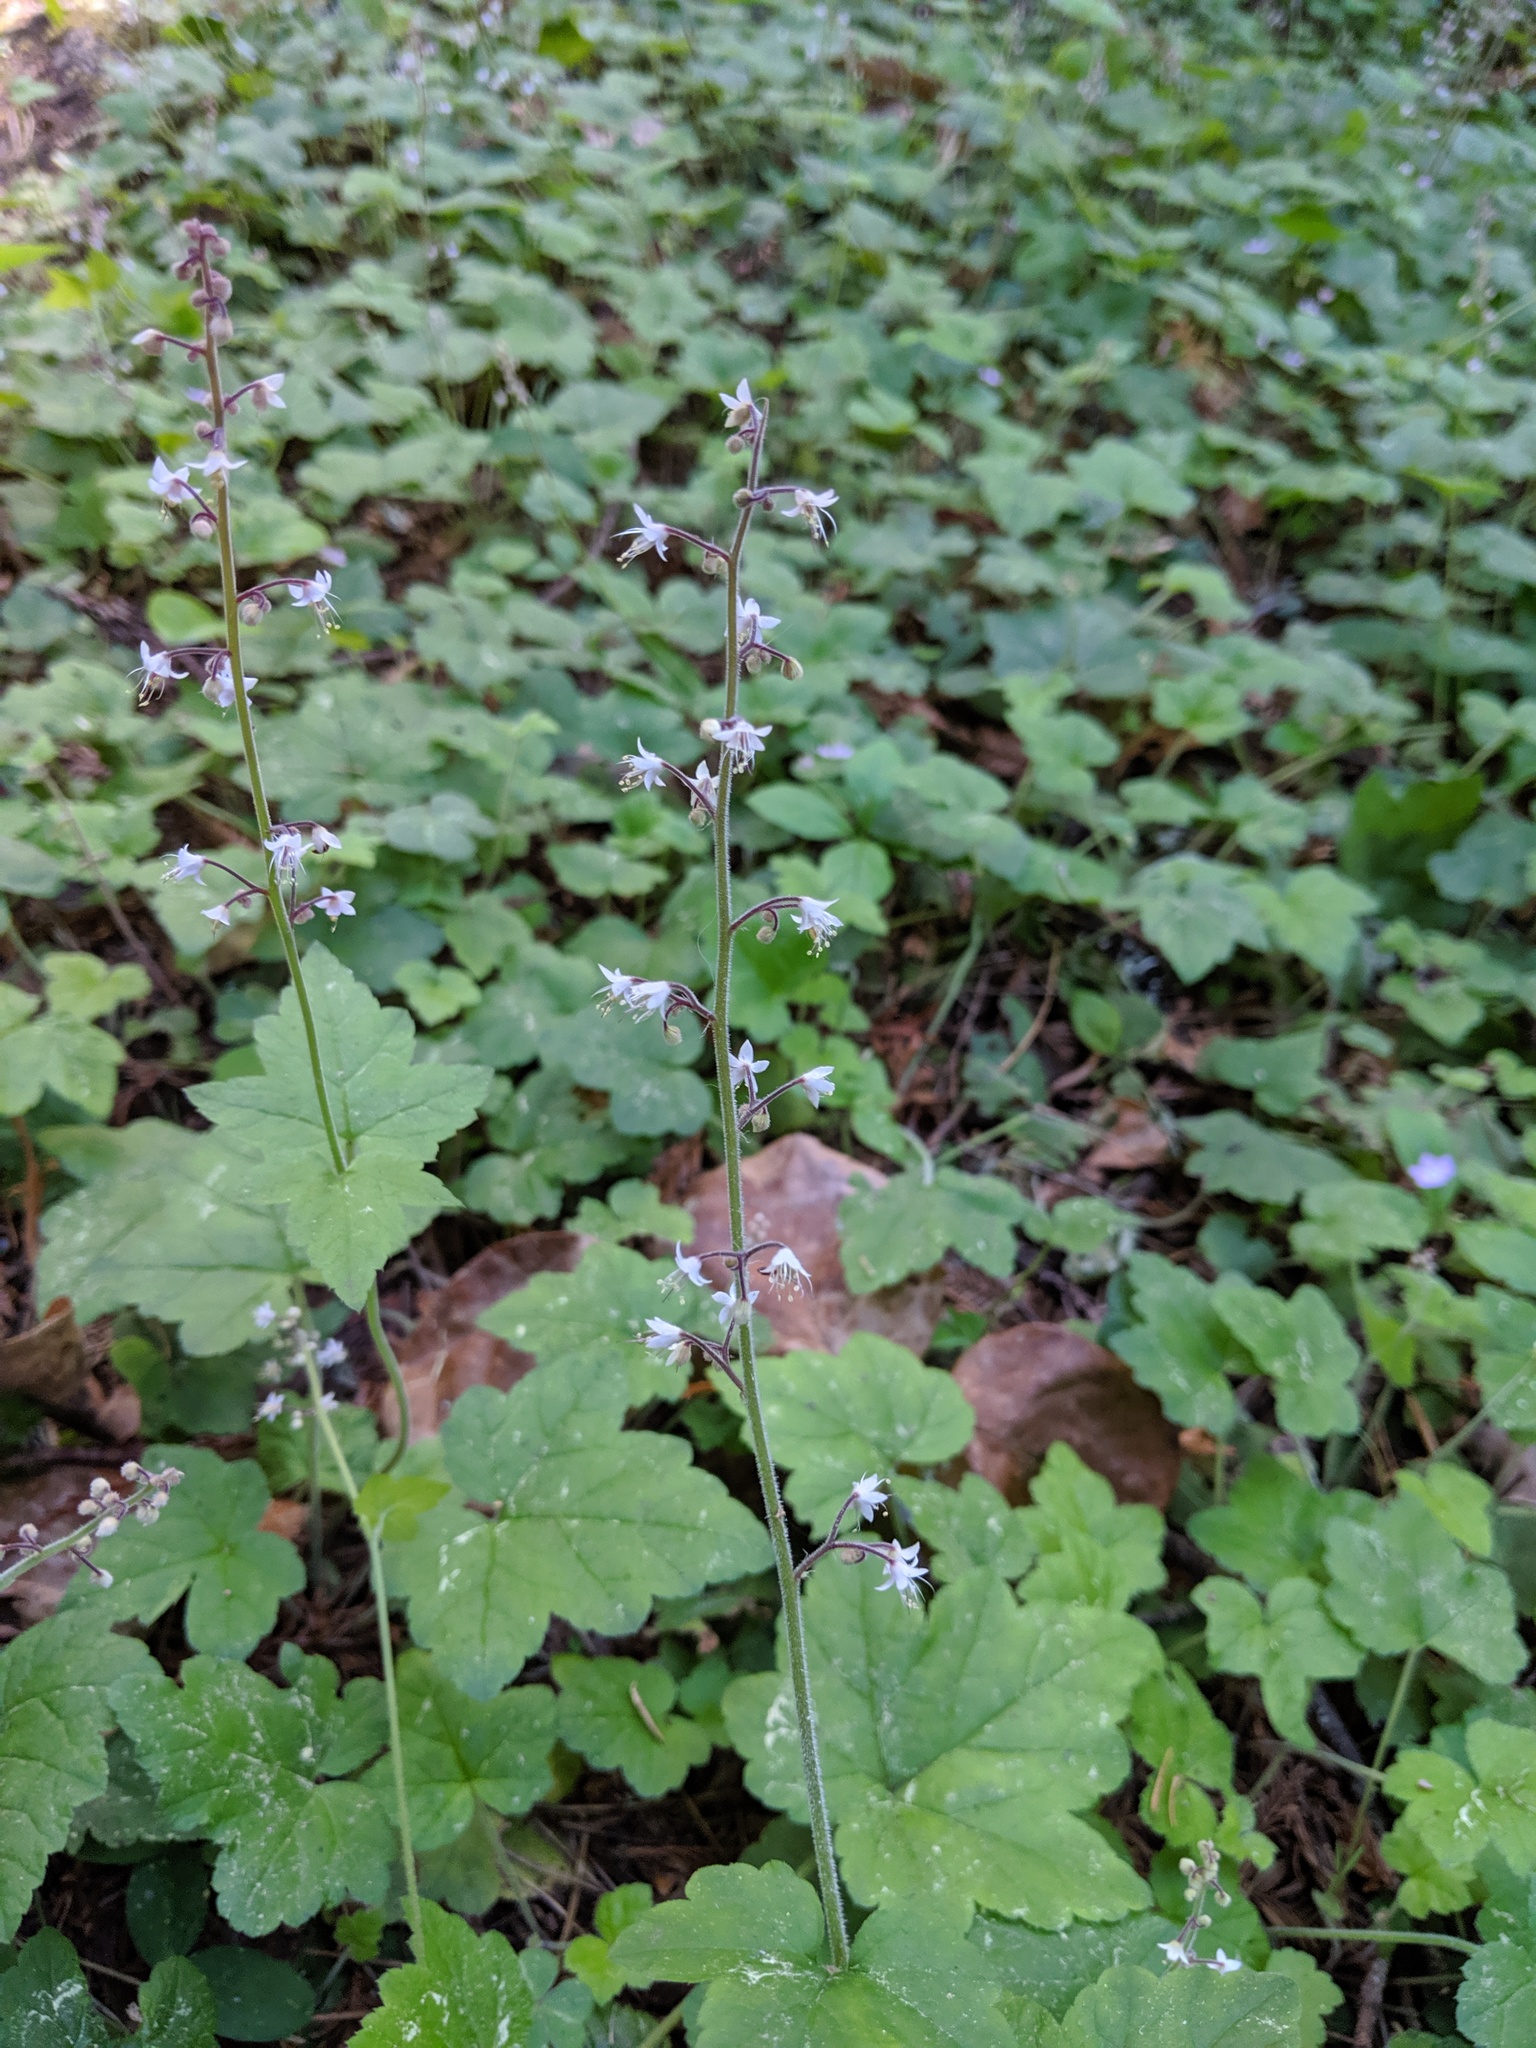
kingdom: Plantae
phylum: Tracheophyta
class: Magnoliopsida
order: Saxifragales
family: Saxifragaceae
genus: Tiarella
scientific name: Tiarella trifoliata
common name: Sugar-scoop
